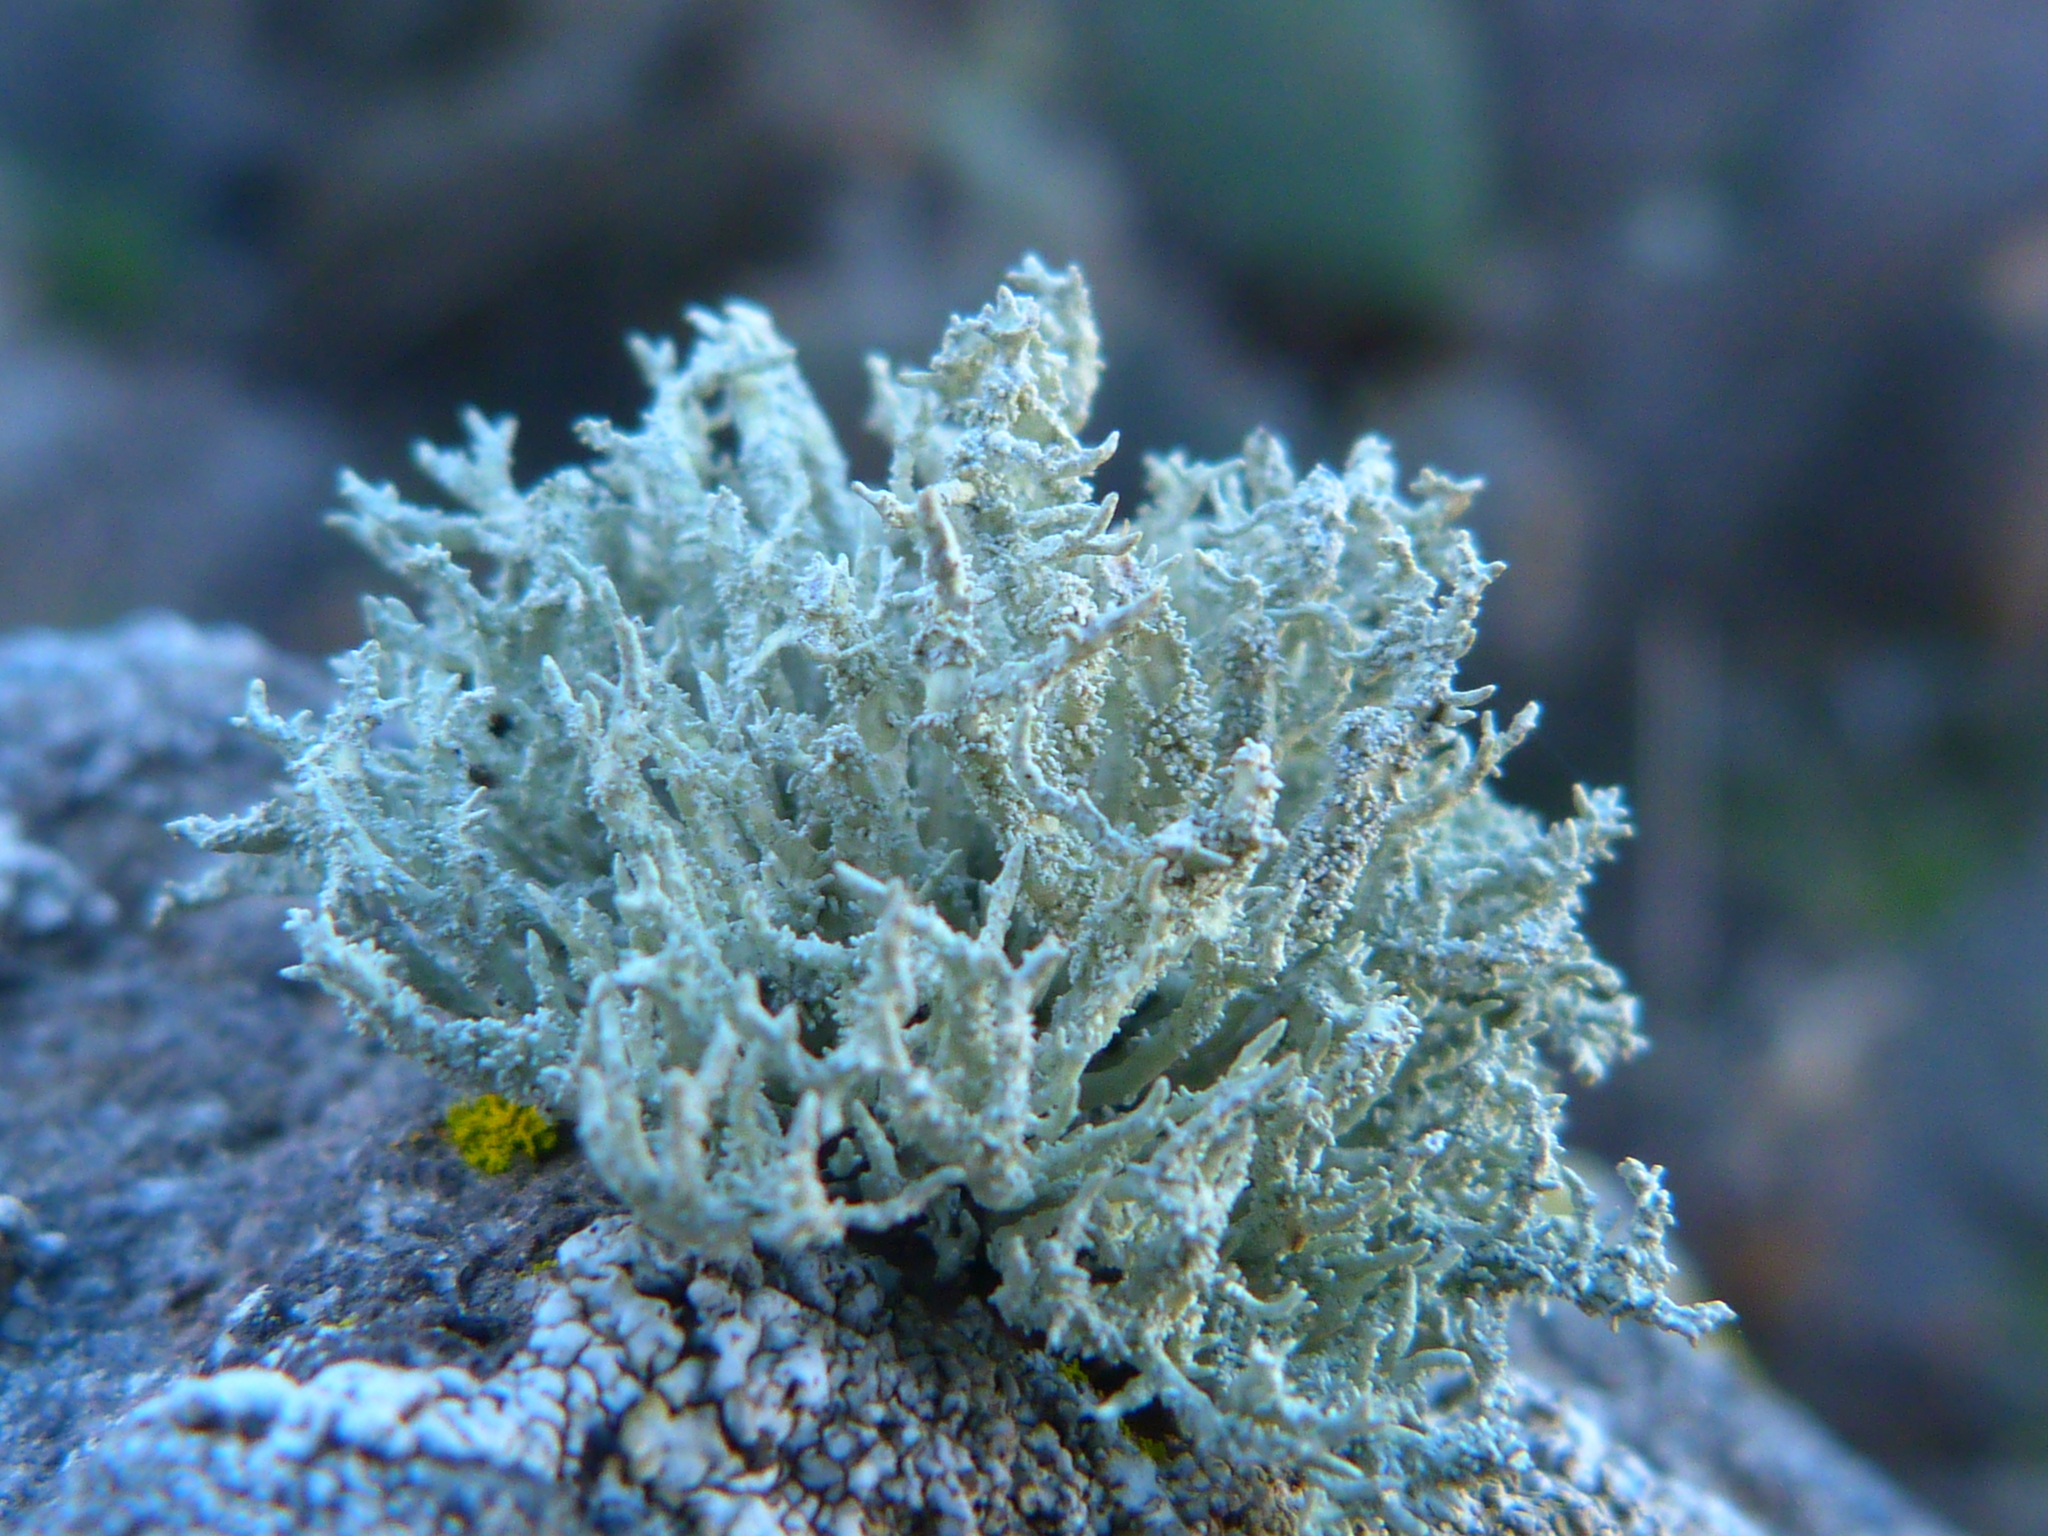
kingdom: Fungi
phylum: Ascomycota
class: Lecanoromycetes
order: Lecanorales
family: Ramalinaceae
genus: Niebla
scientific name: Niebla isidiaescens
